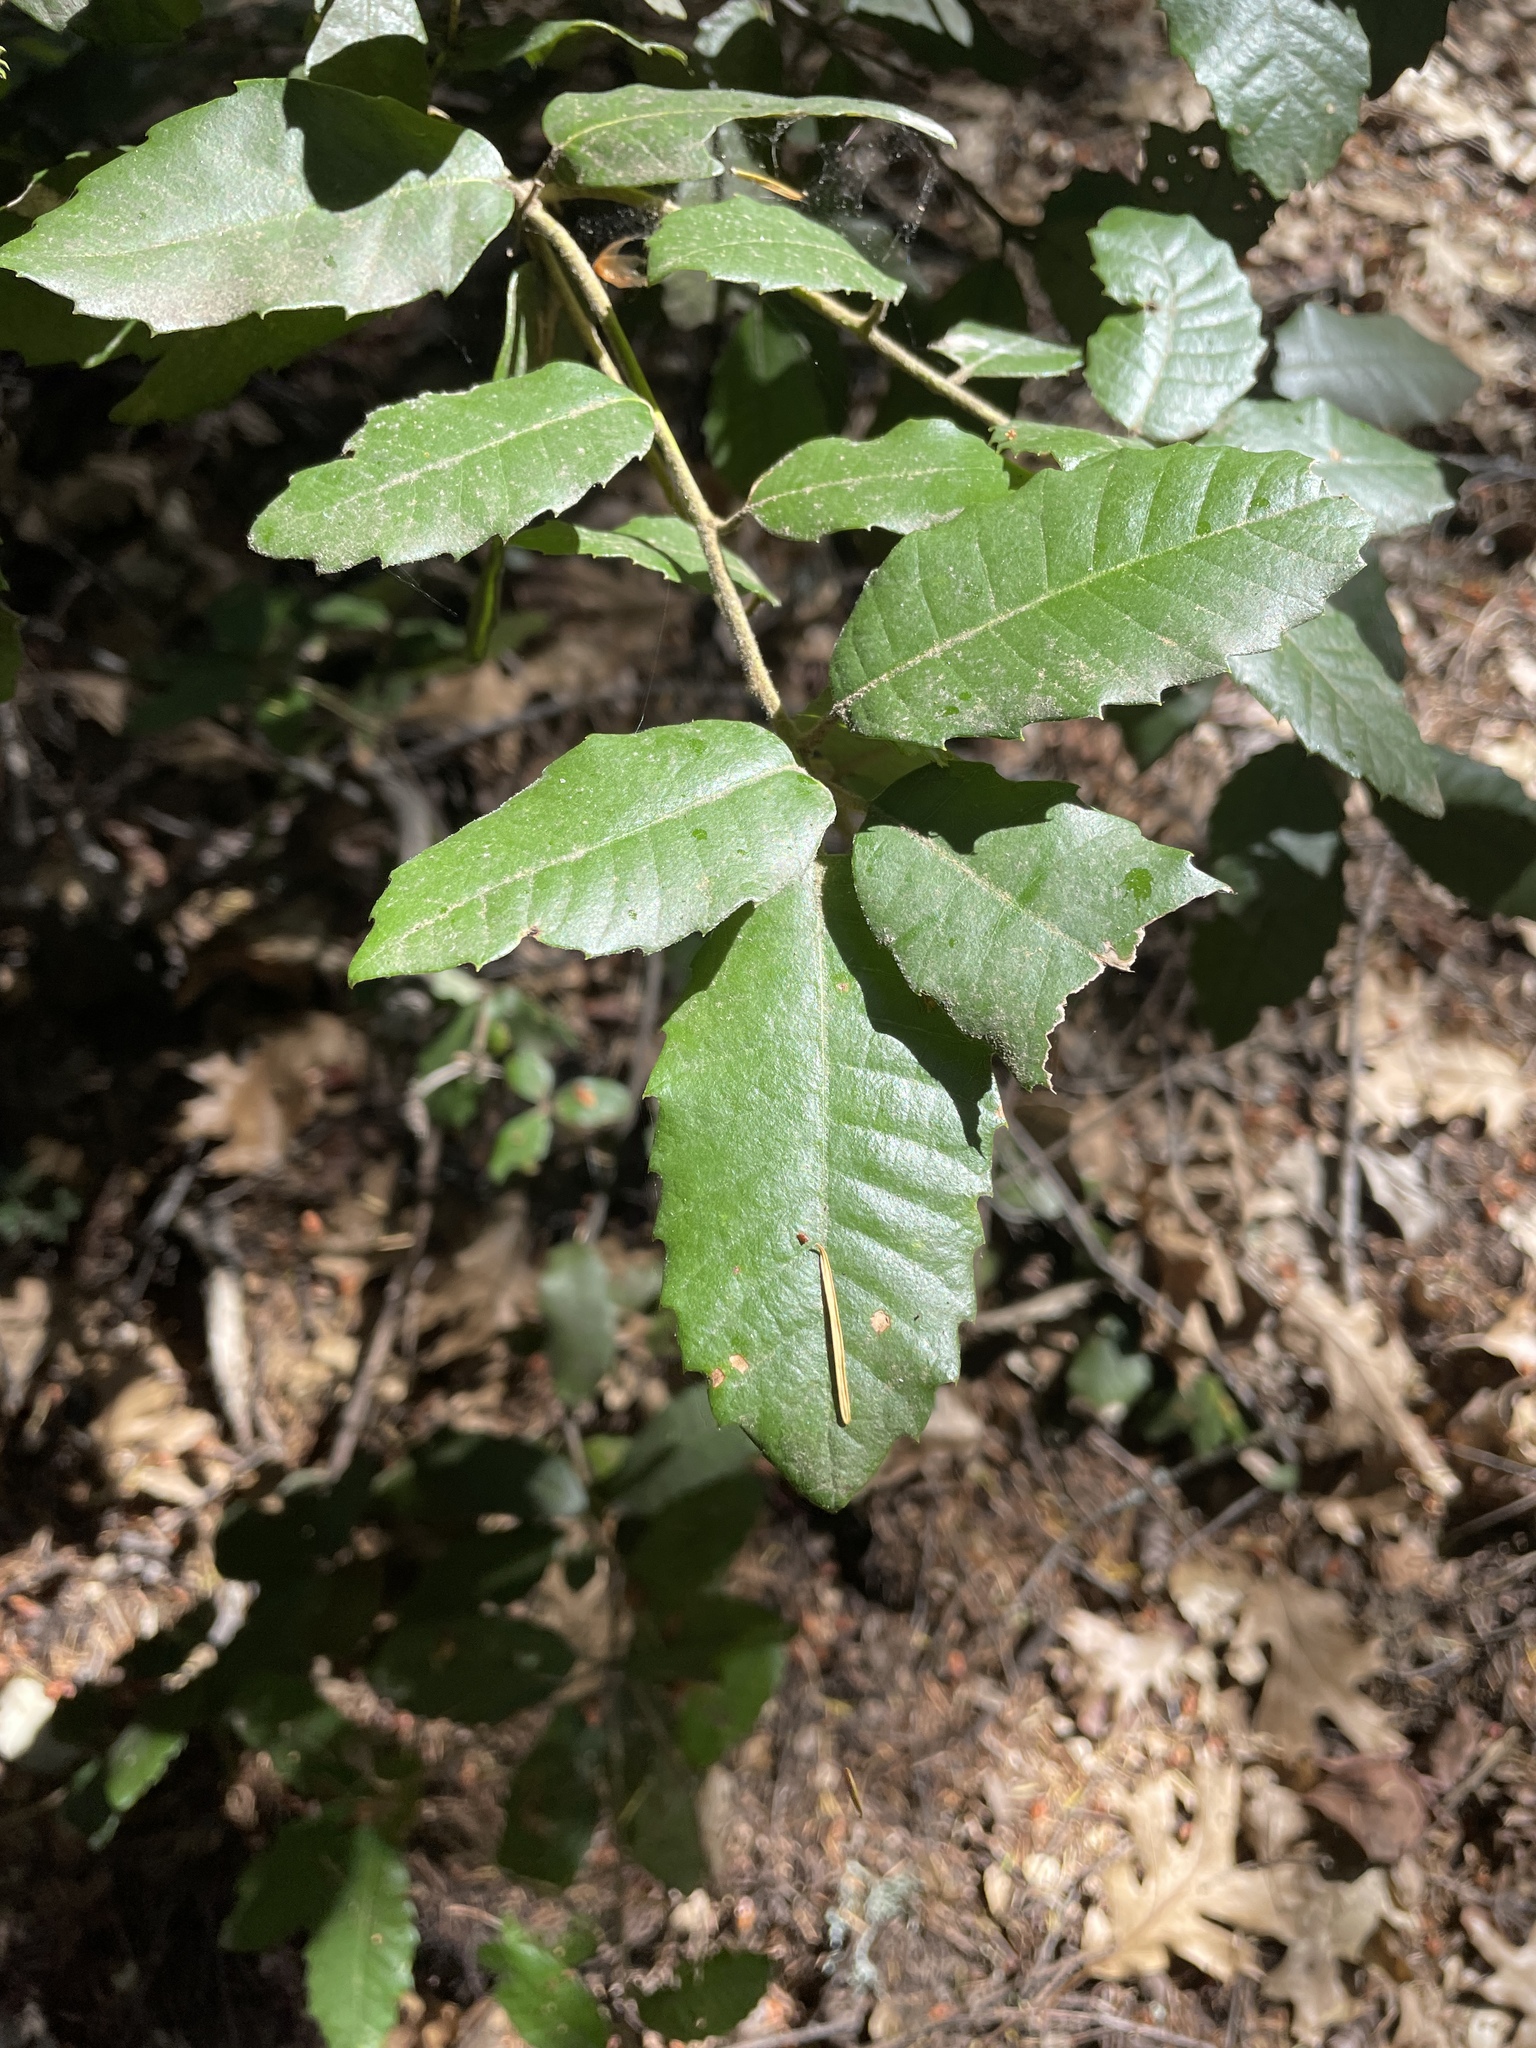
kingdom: Plantae
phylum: Tracheophyta
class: Magnoliopsida
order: Fagales
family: Fagaceae
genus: Notholithocarpus
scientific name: Notholithocarpus densiflorus
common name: Tan bark oak
